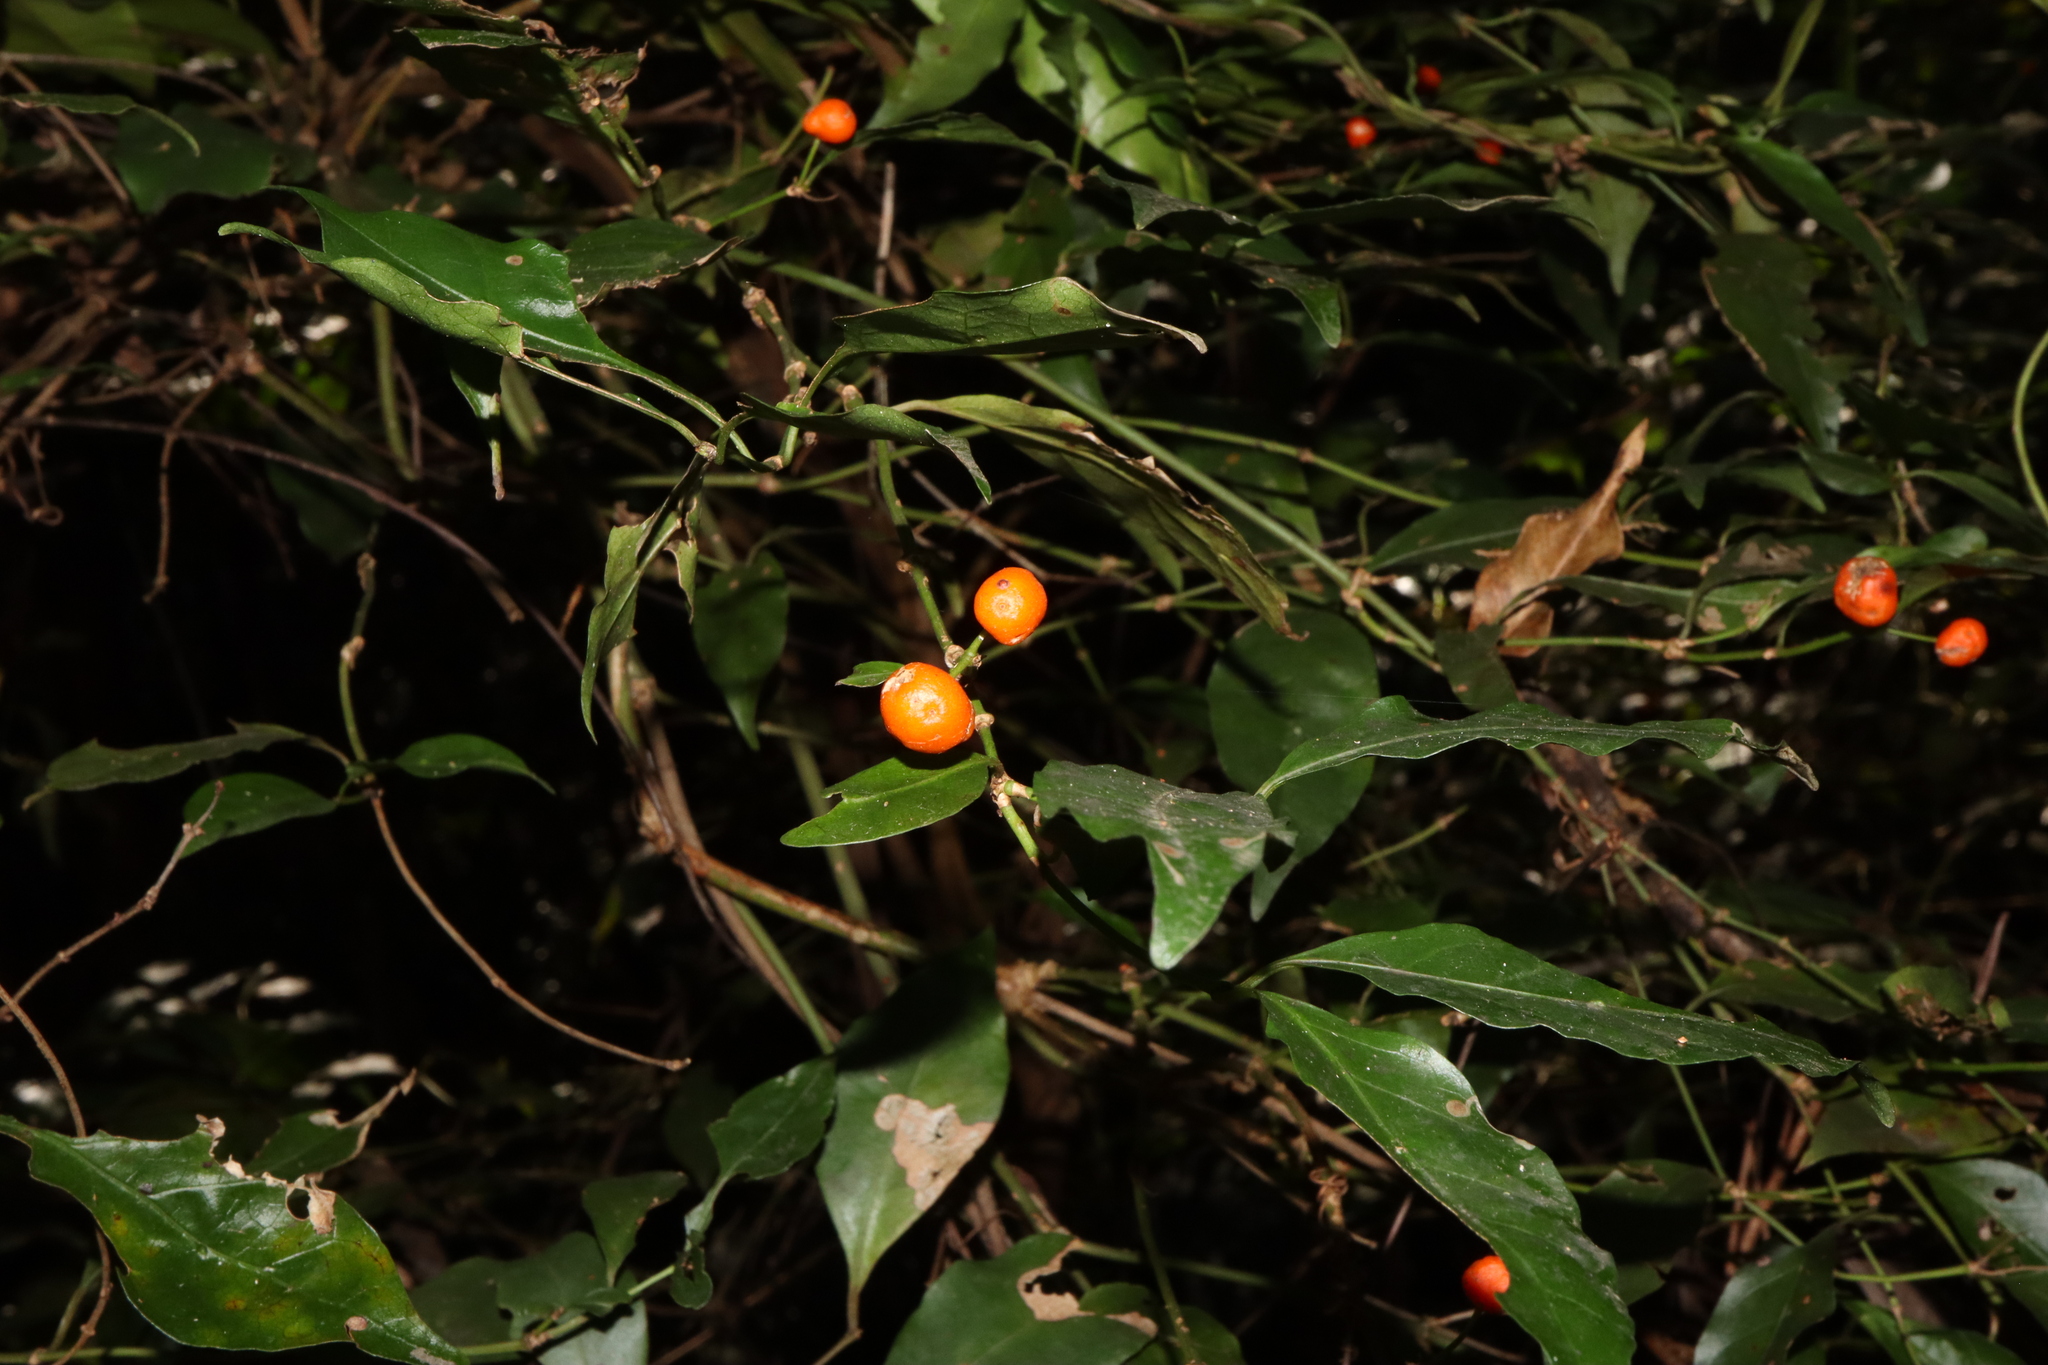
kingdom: Plantae
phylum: Tracheophyta
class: Magnoliopsida
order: Gentianales
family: Rubiaceae
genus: Gynochthodes
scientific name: Gynochthodes jasminoides
